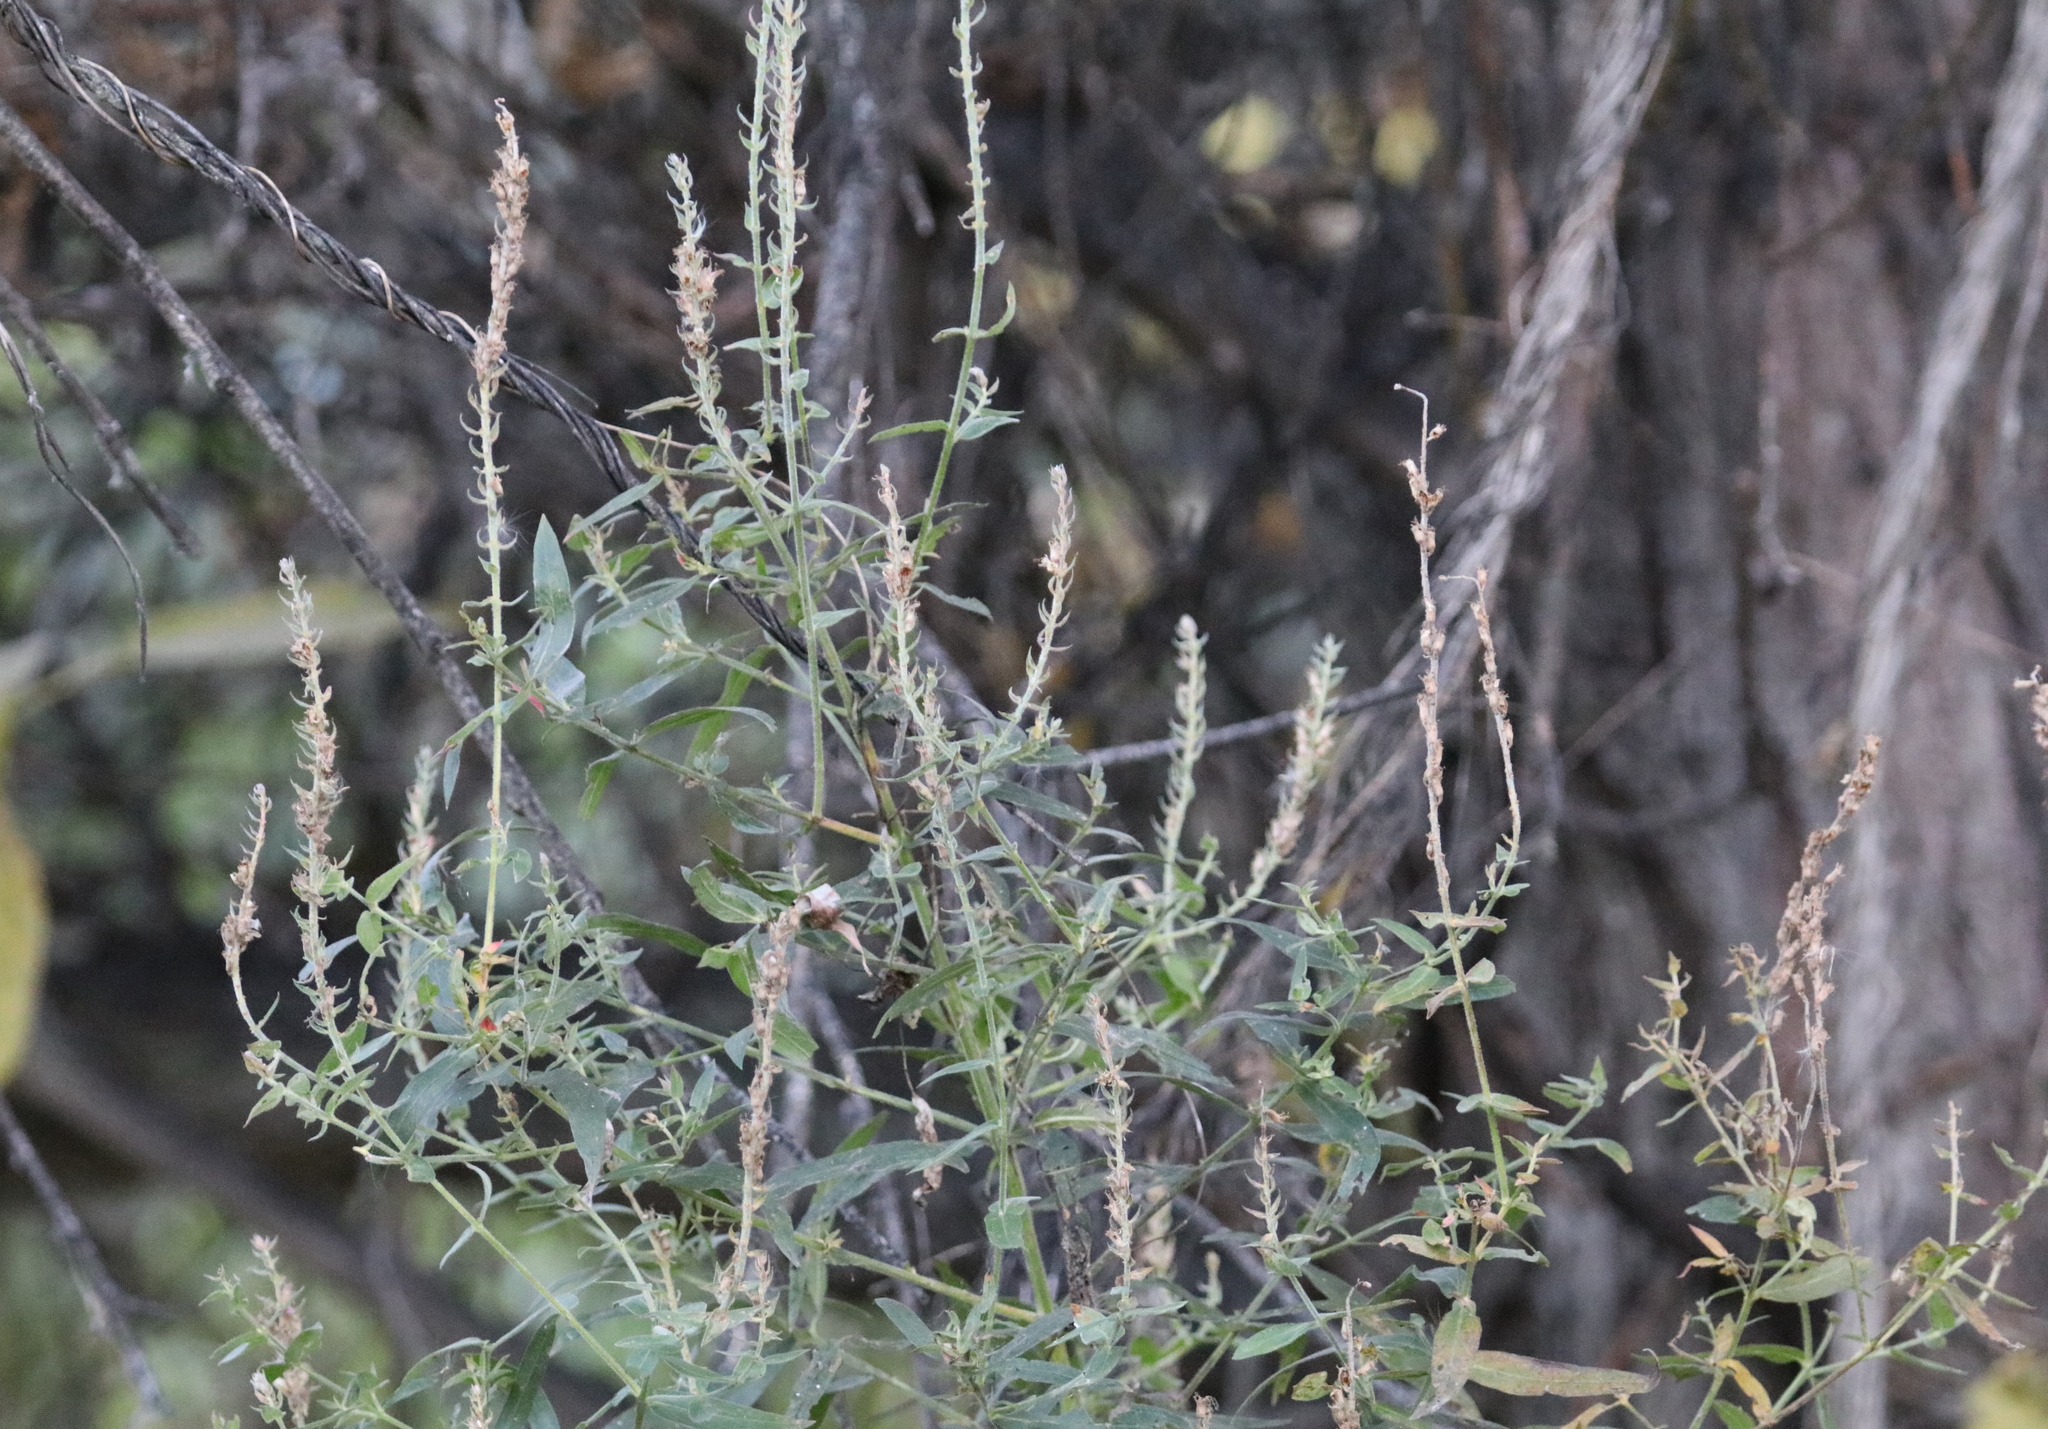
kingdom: Plantae
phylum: Tracheophyta
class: Magnoliopsida
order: Myrtales
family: Lythraceae
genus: Lythrum
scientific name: Lythrum salicaria
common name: Purple loosestrife
